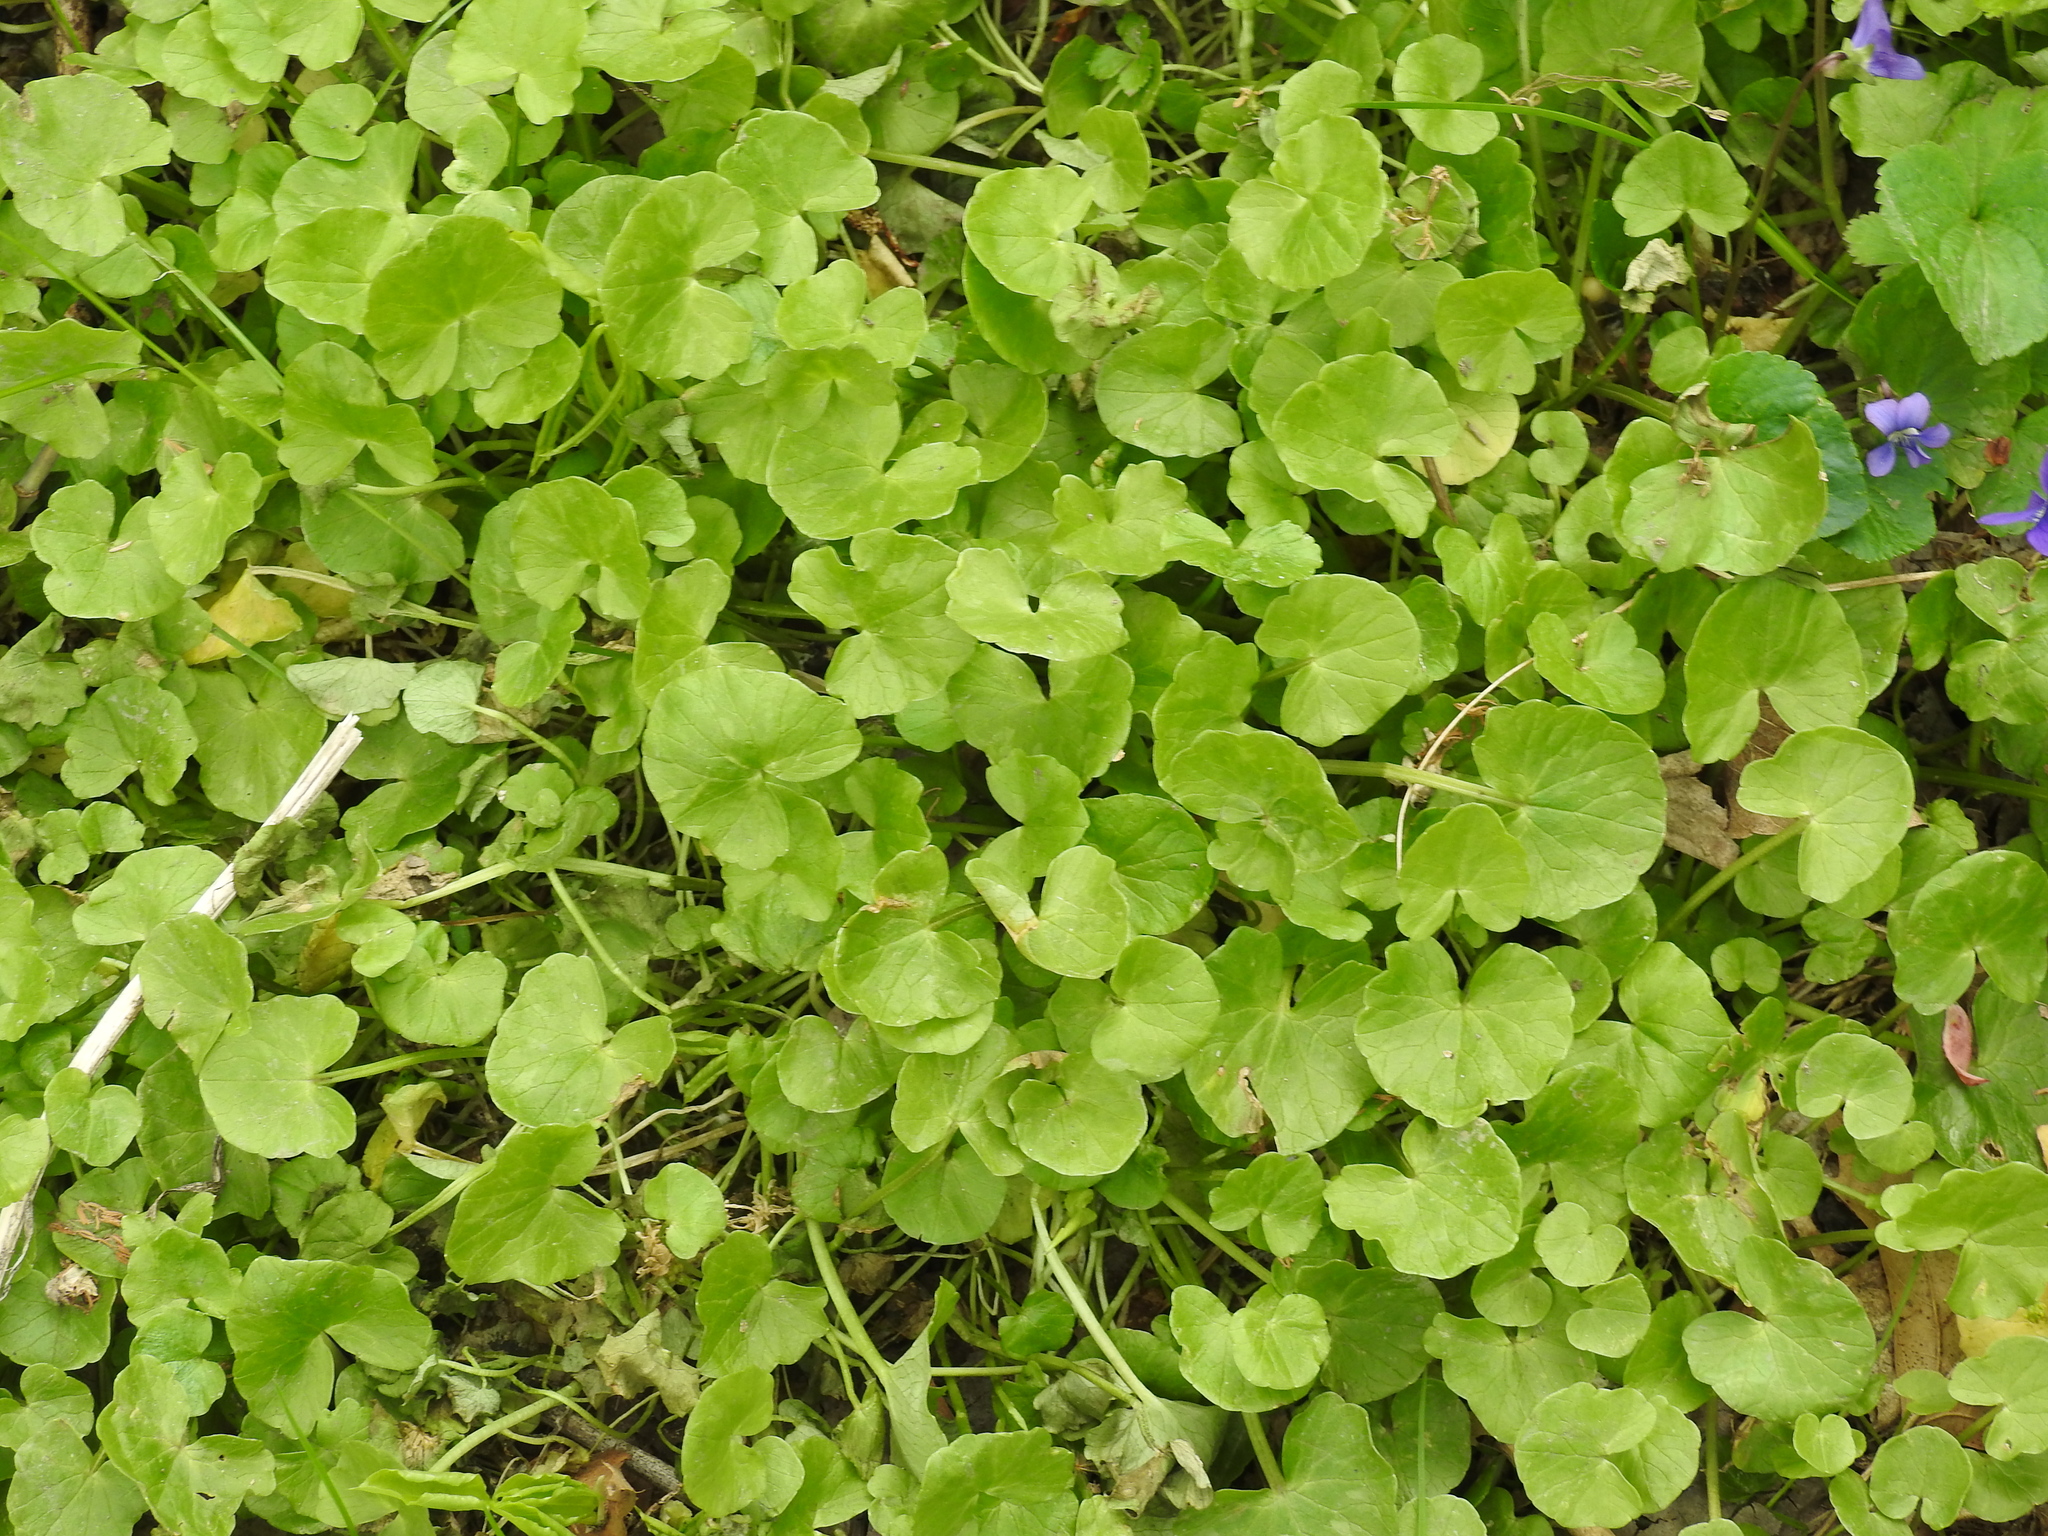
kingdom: Plantae
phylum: Tracheophyta
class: Magnoliopsida
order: Ranunculales
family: Ranunculaceae
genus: Ficaria
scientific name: Ficaria verna
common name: Lesser celandine
